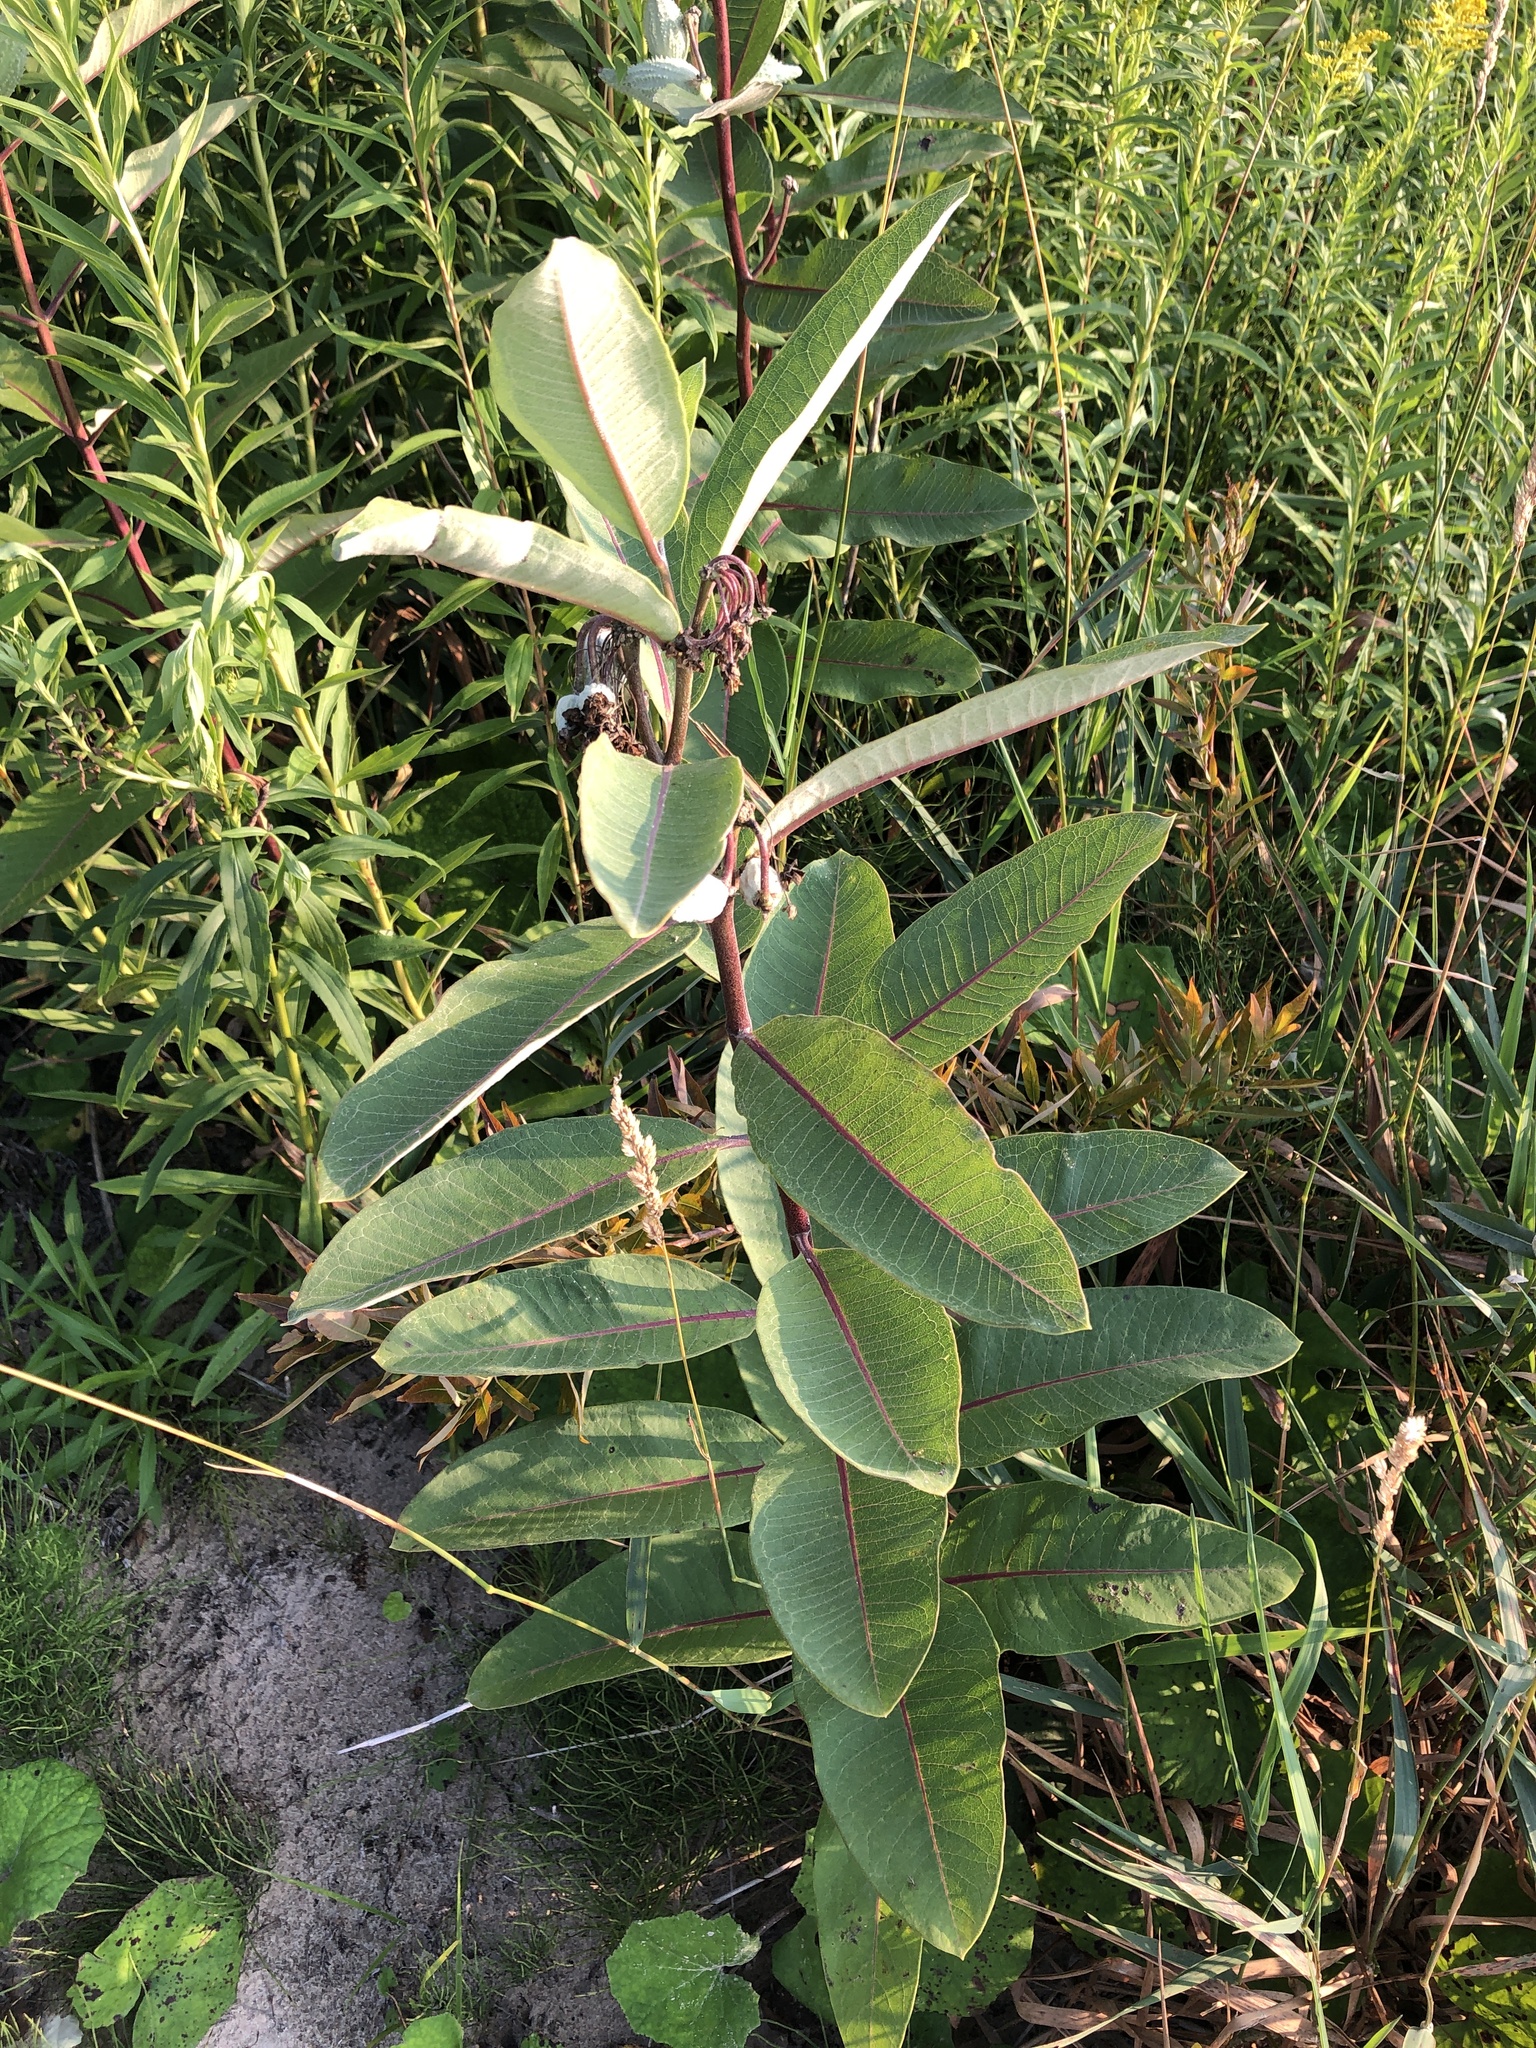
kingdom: Plantae
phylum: Tracheophyta
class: Magnoliopsida
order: Gentianales
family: Apocynaceae
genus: Asclepias
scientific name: Asclepias syriaca
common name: Common milkweed
